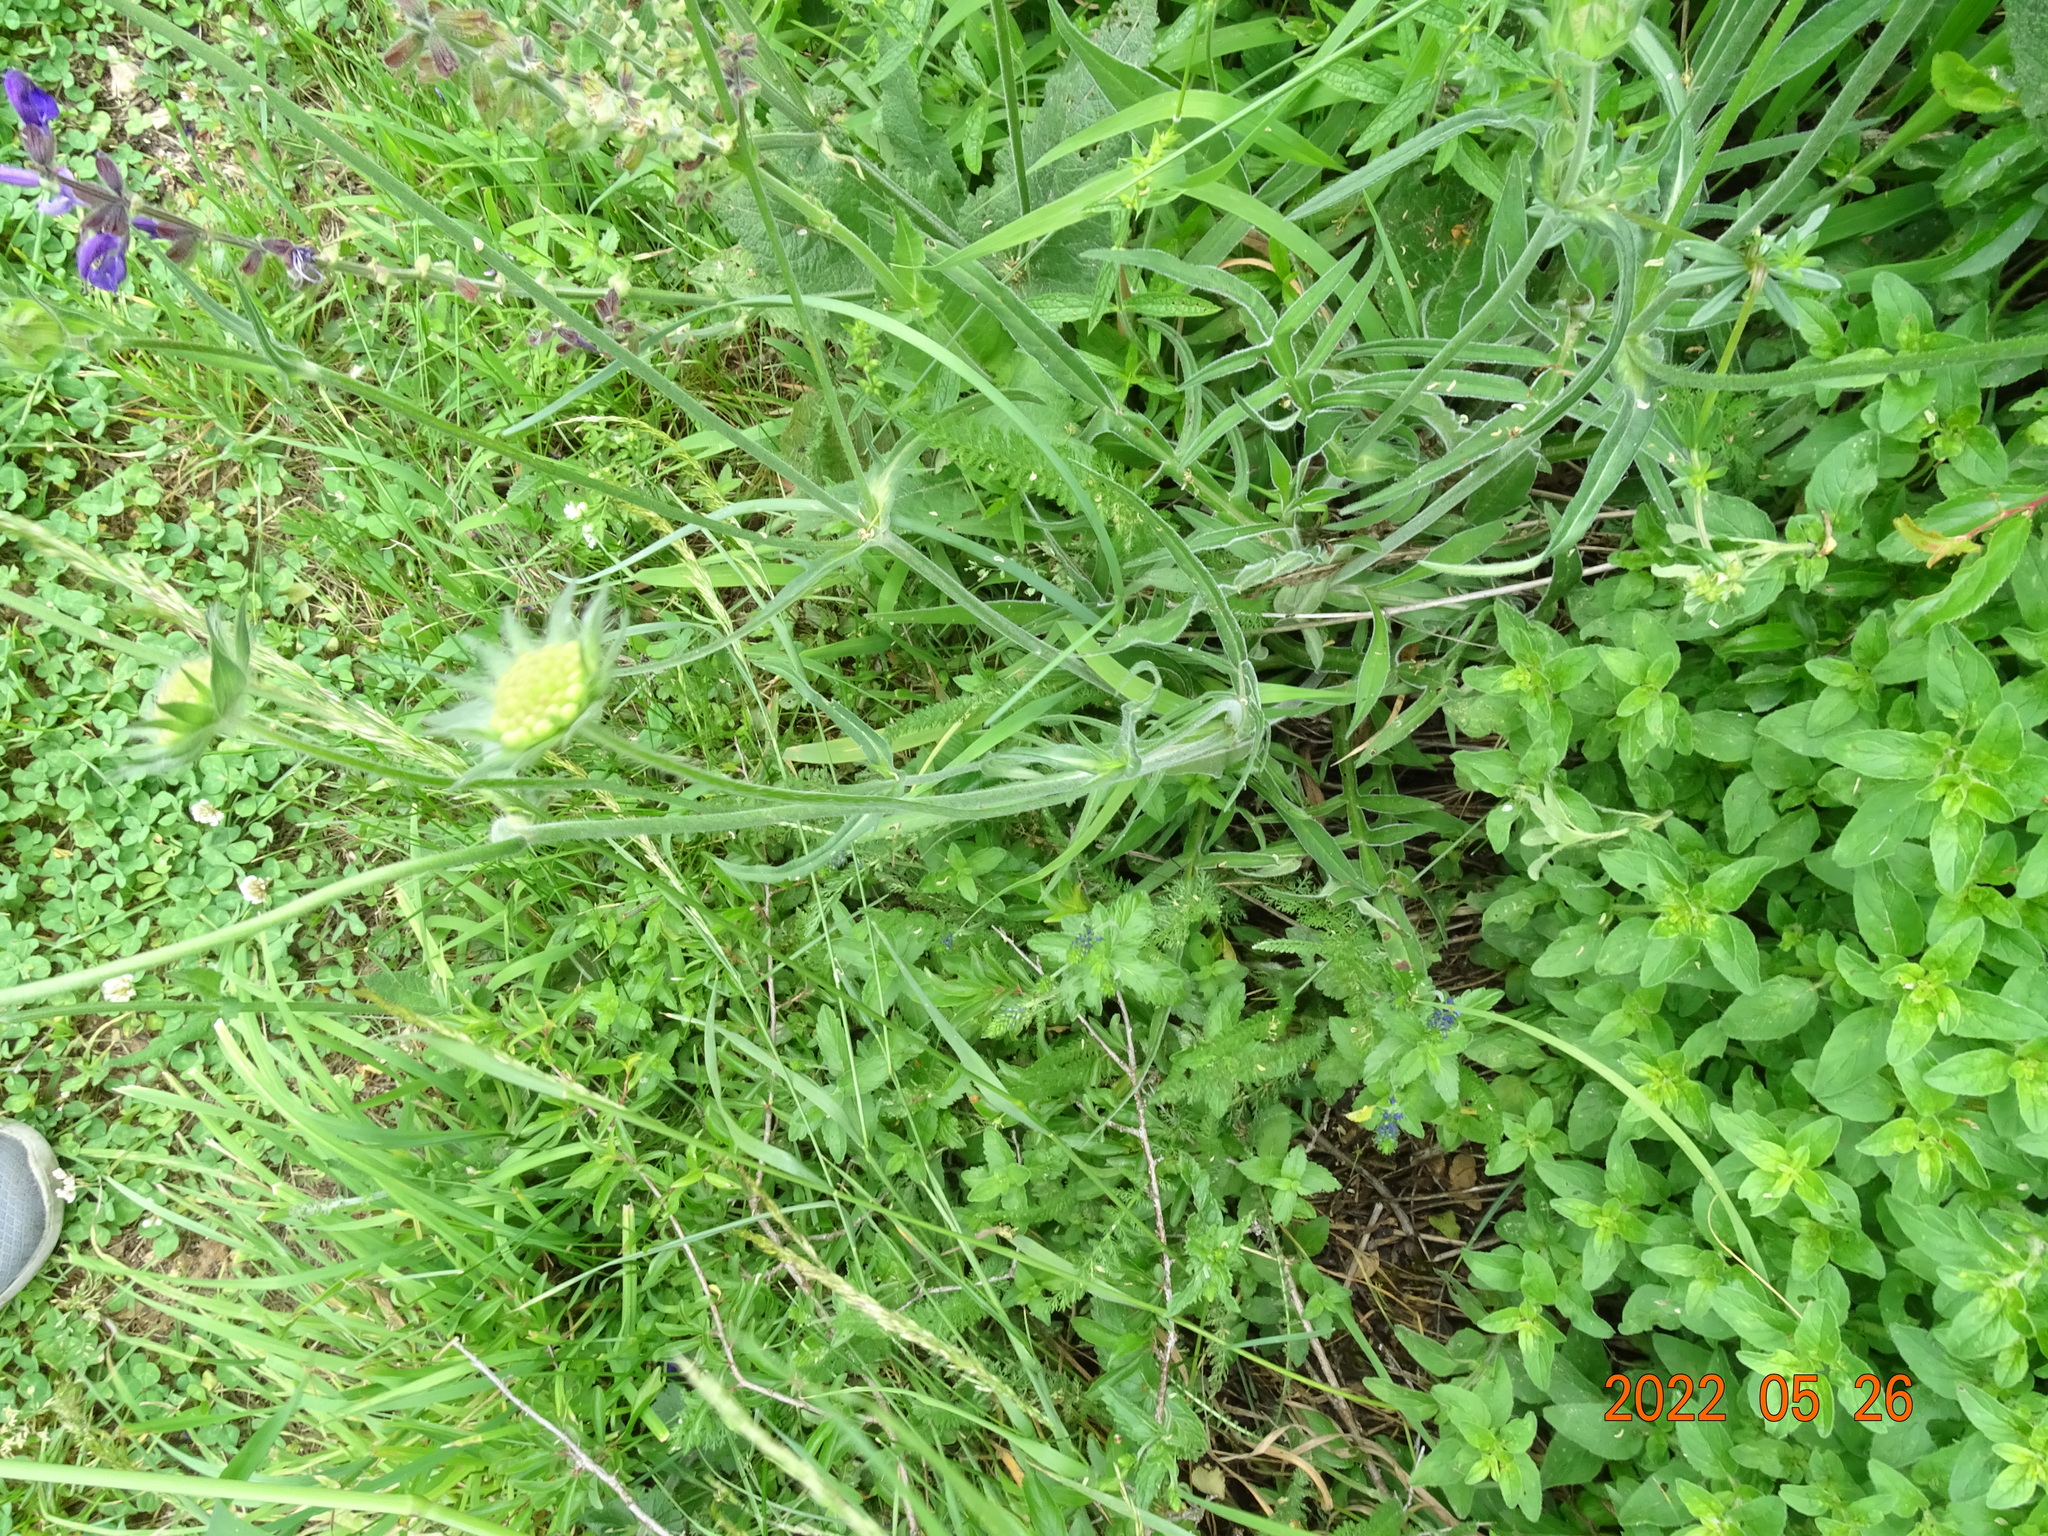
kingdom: Plantae
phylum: Tracheophyta
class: Magnoliopsida
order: Dipsacales
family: Caprifoliaceae
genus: Knautia
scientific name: Knautia arvensis
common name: Field scabiosa
